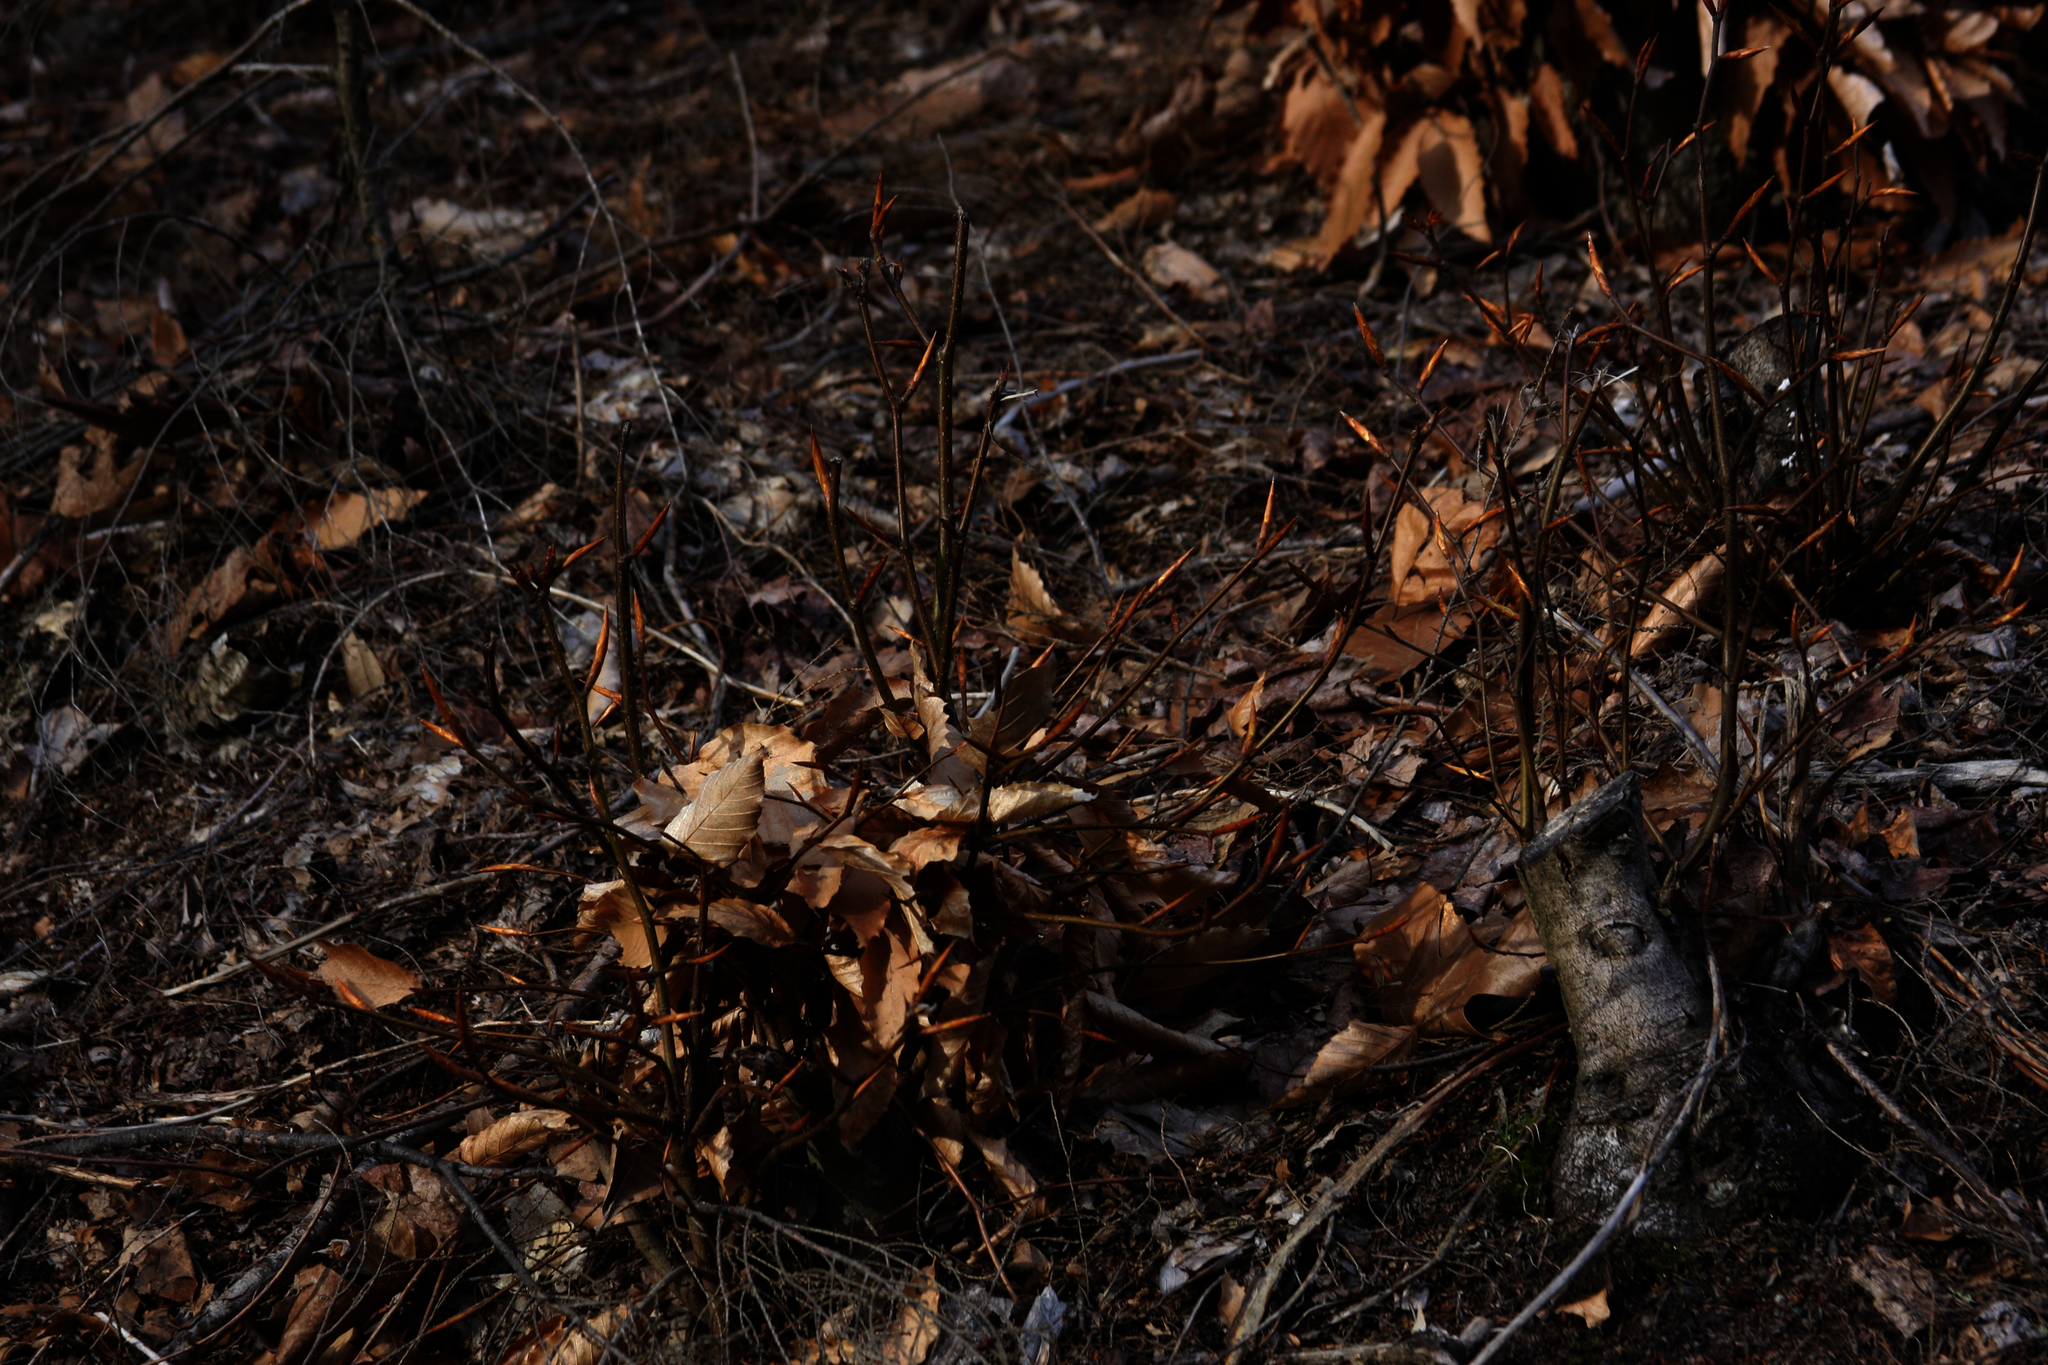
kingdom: Plantae
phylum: Tracheophyta
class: Magnoliopsida
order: Fagales
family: Fagaceae
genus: Fagus
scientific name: Fagus grandifolia
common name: American beech
